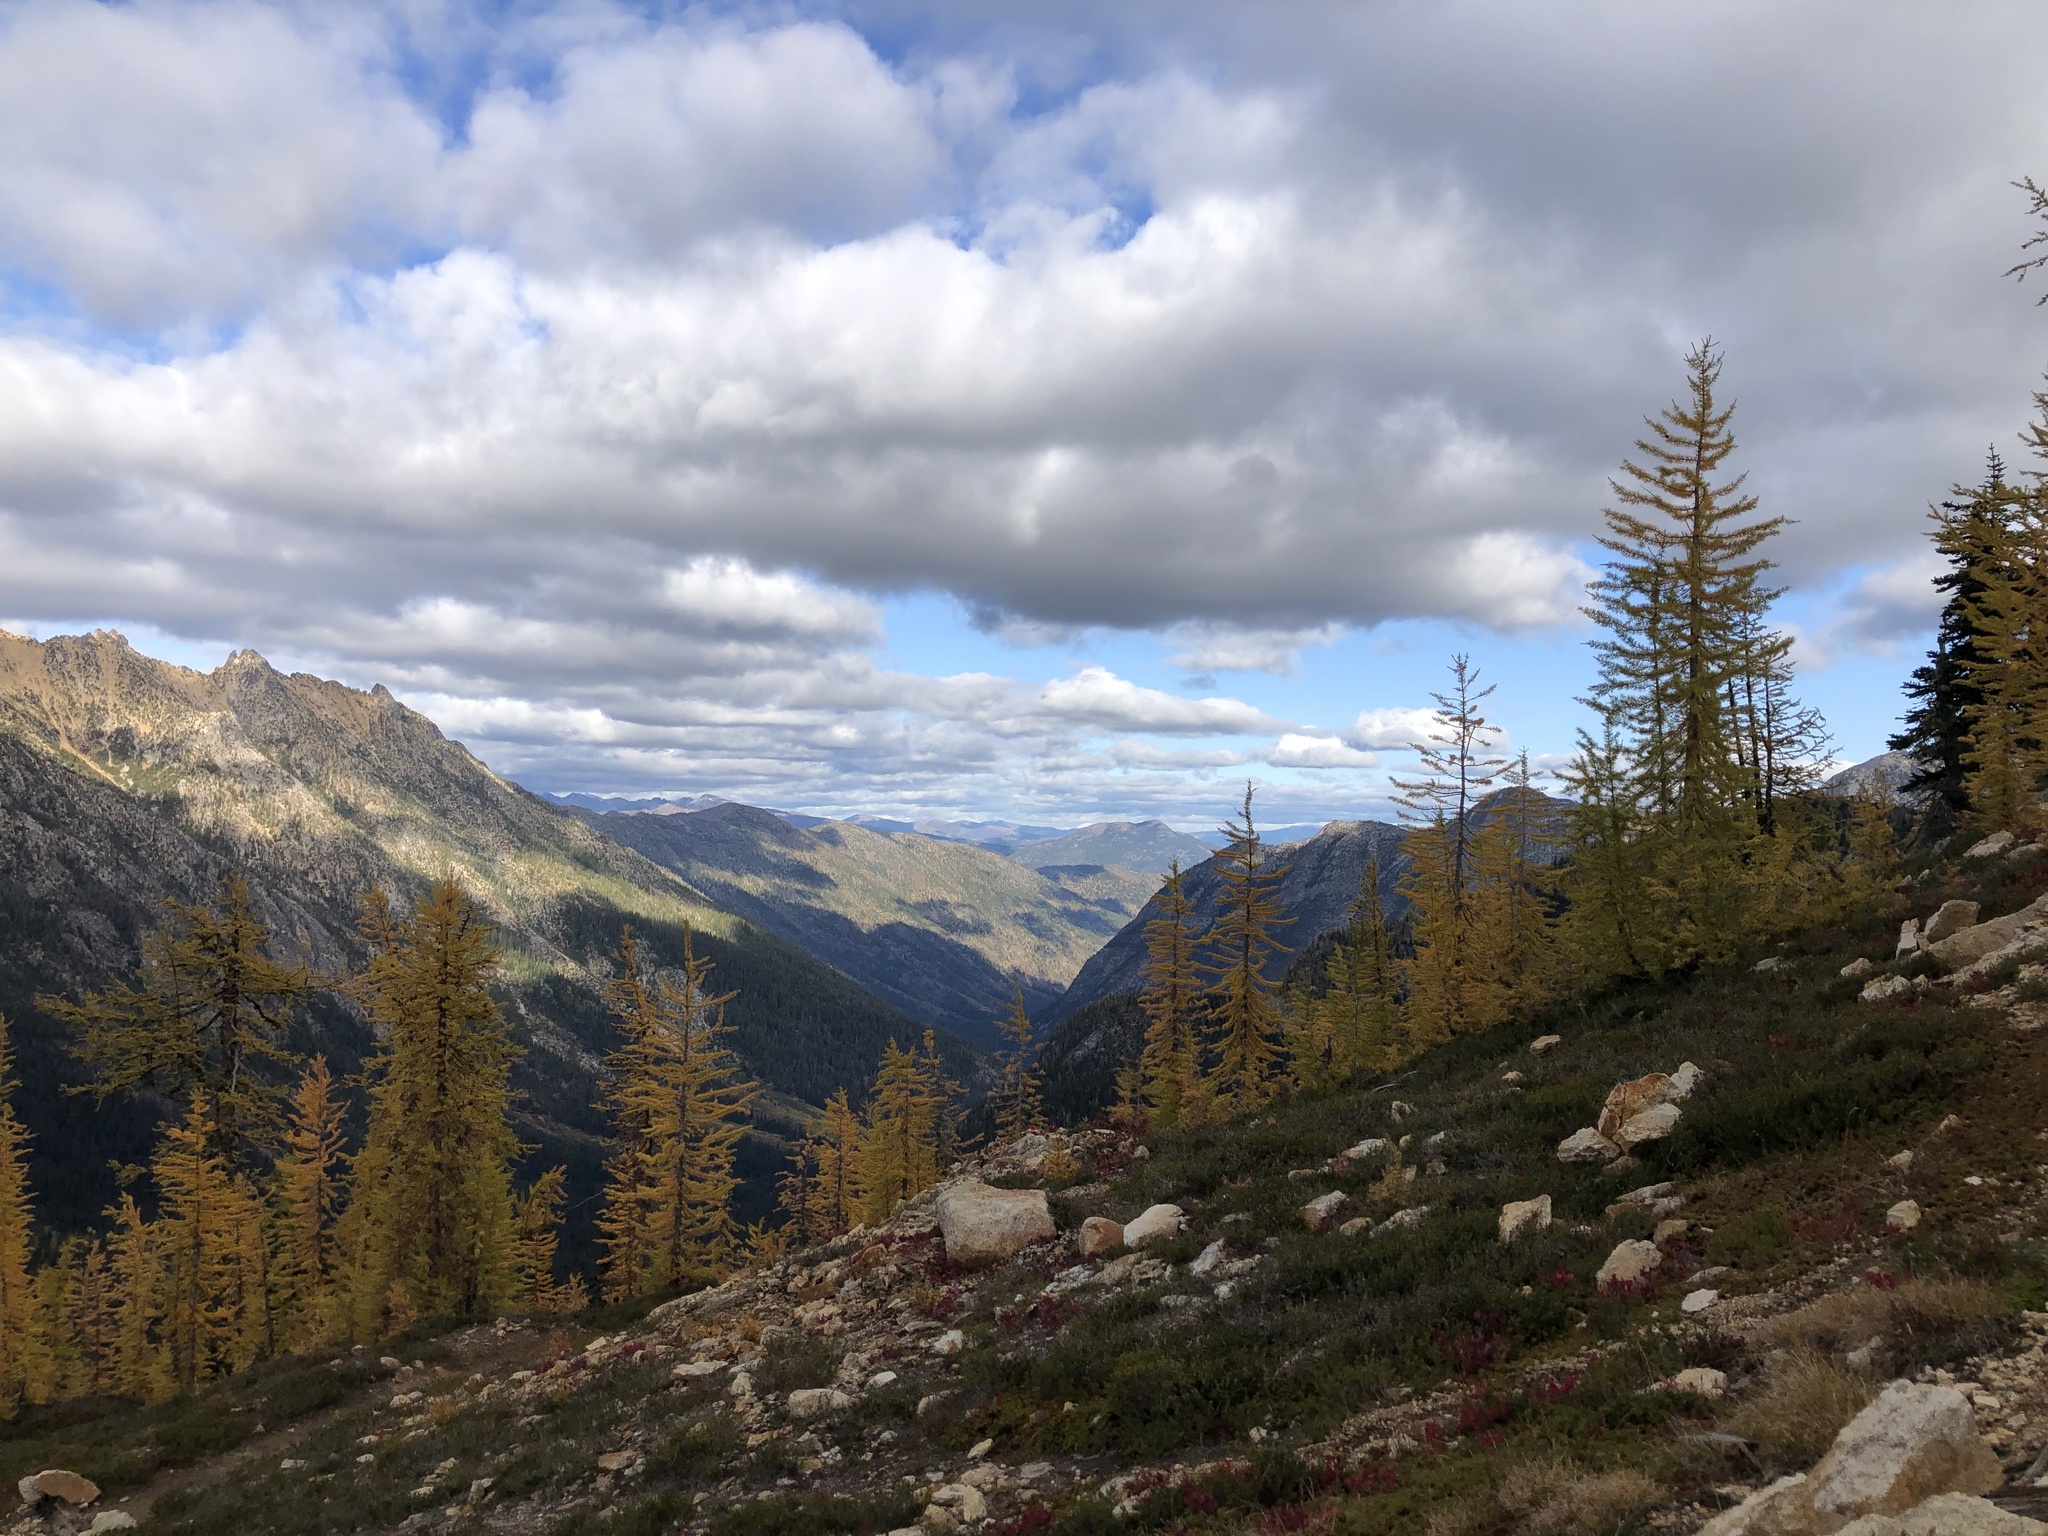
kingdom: Plantae
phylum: Tracheophyta
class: Pinopsida
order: Pinales
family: Pinaceae
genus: Larix
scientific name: Larix lyallii
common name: Alpine larch
